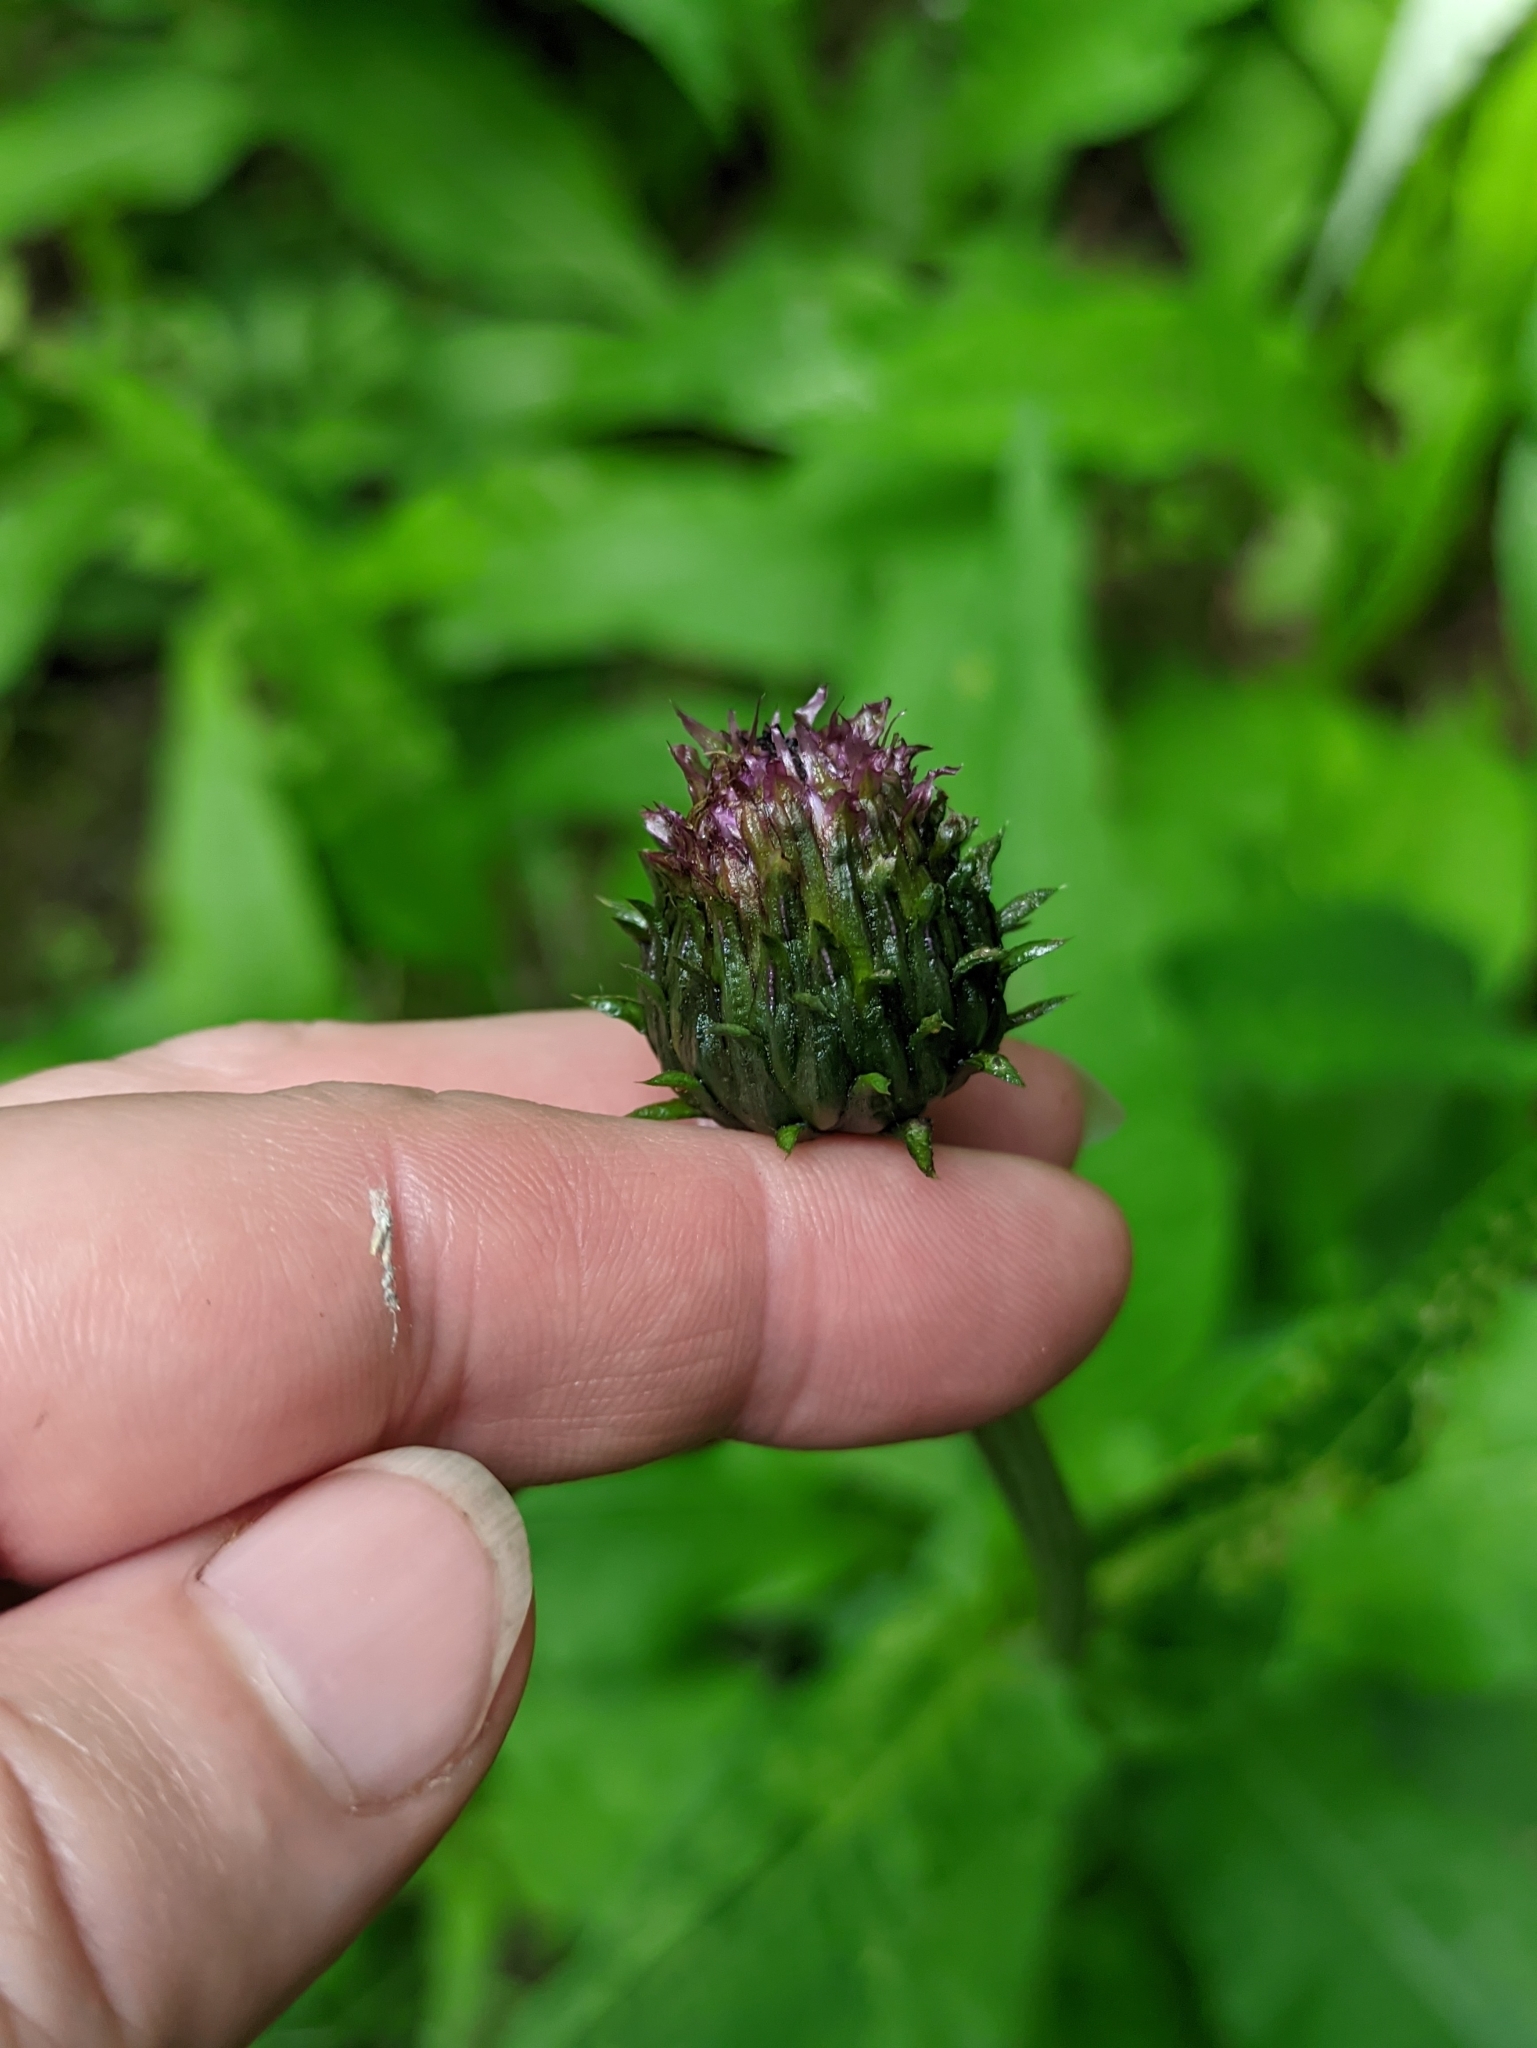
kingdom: Plantae
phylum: Tracheophyta
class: Magnoliopsida
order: Asterales
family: Asteraceae
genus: Cirsium
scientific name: Cirsium heterophyllum
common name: Melancholy thistle
